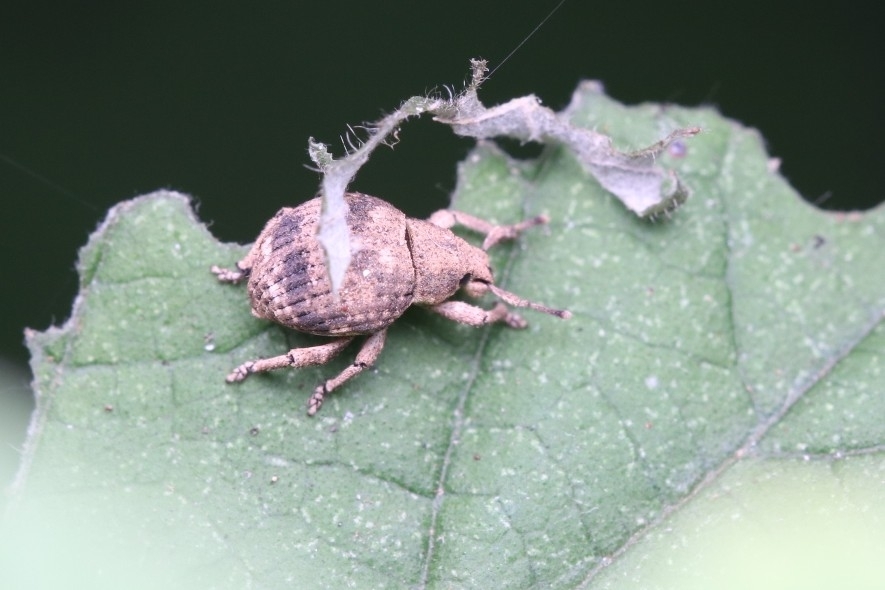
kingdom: Animalia
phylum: Arthropoda
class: Insecta
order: Coleoptera
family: Curculionidae
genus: Pseudocneorhinus
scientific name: Pseudocneorhinus bifasciatus
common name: Two-banded japanese weevil
